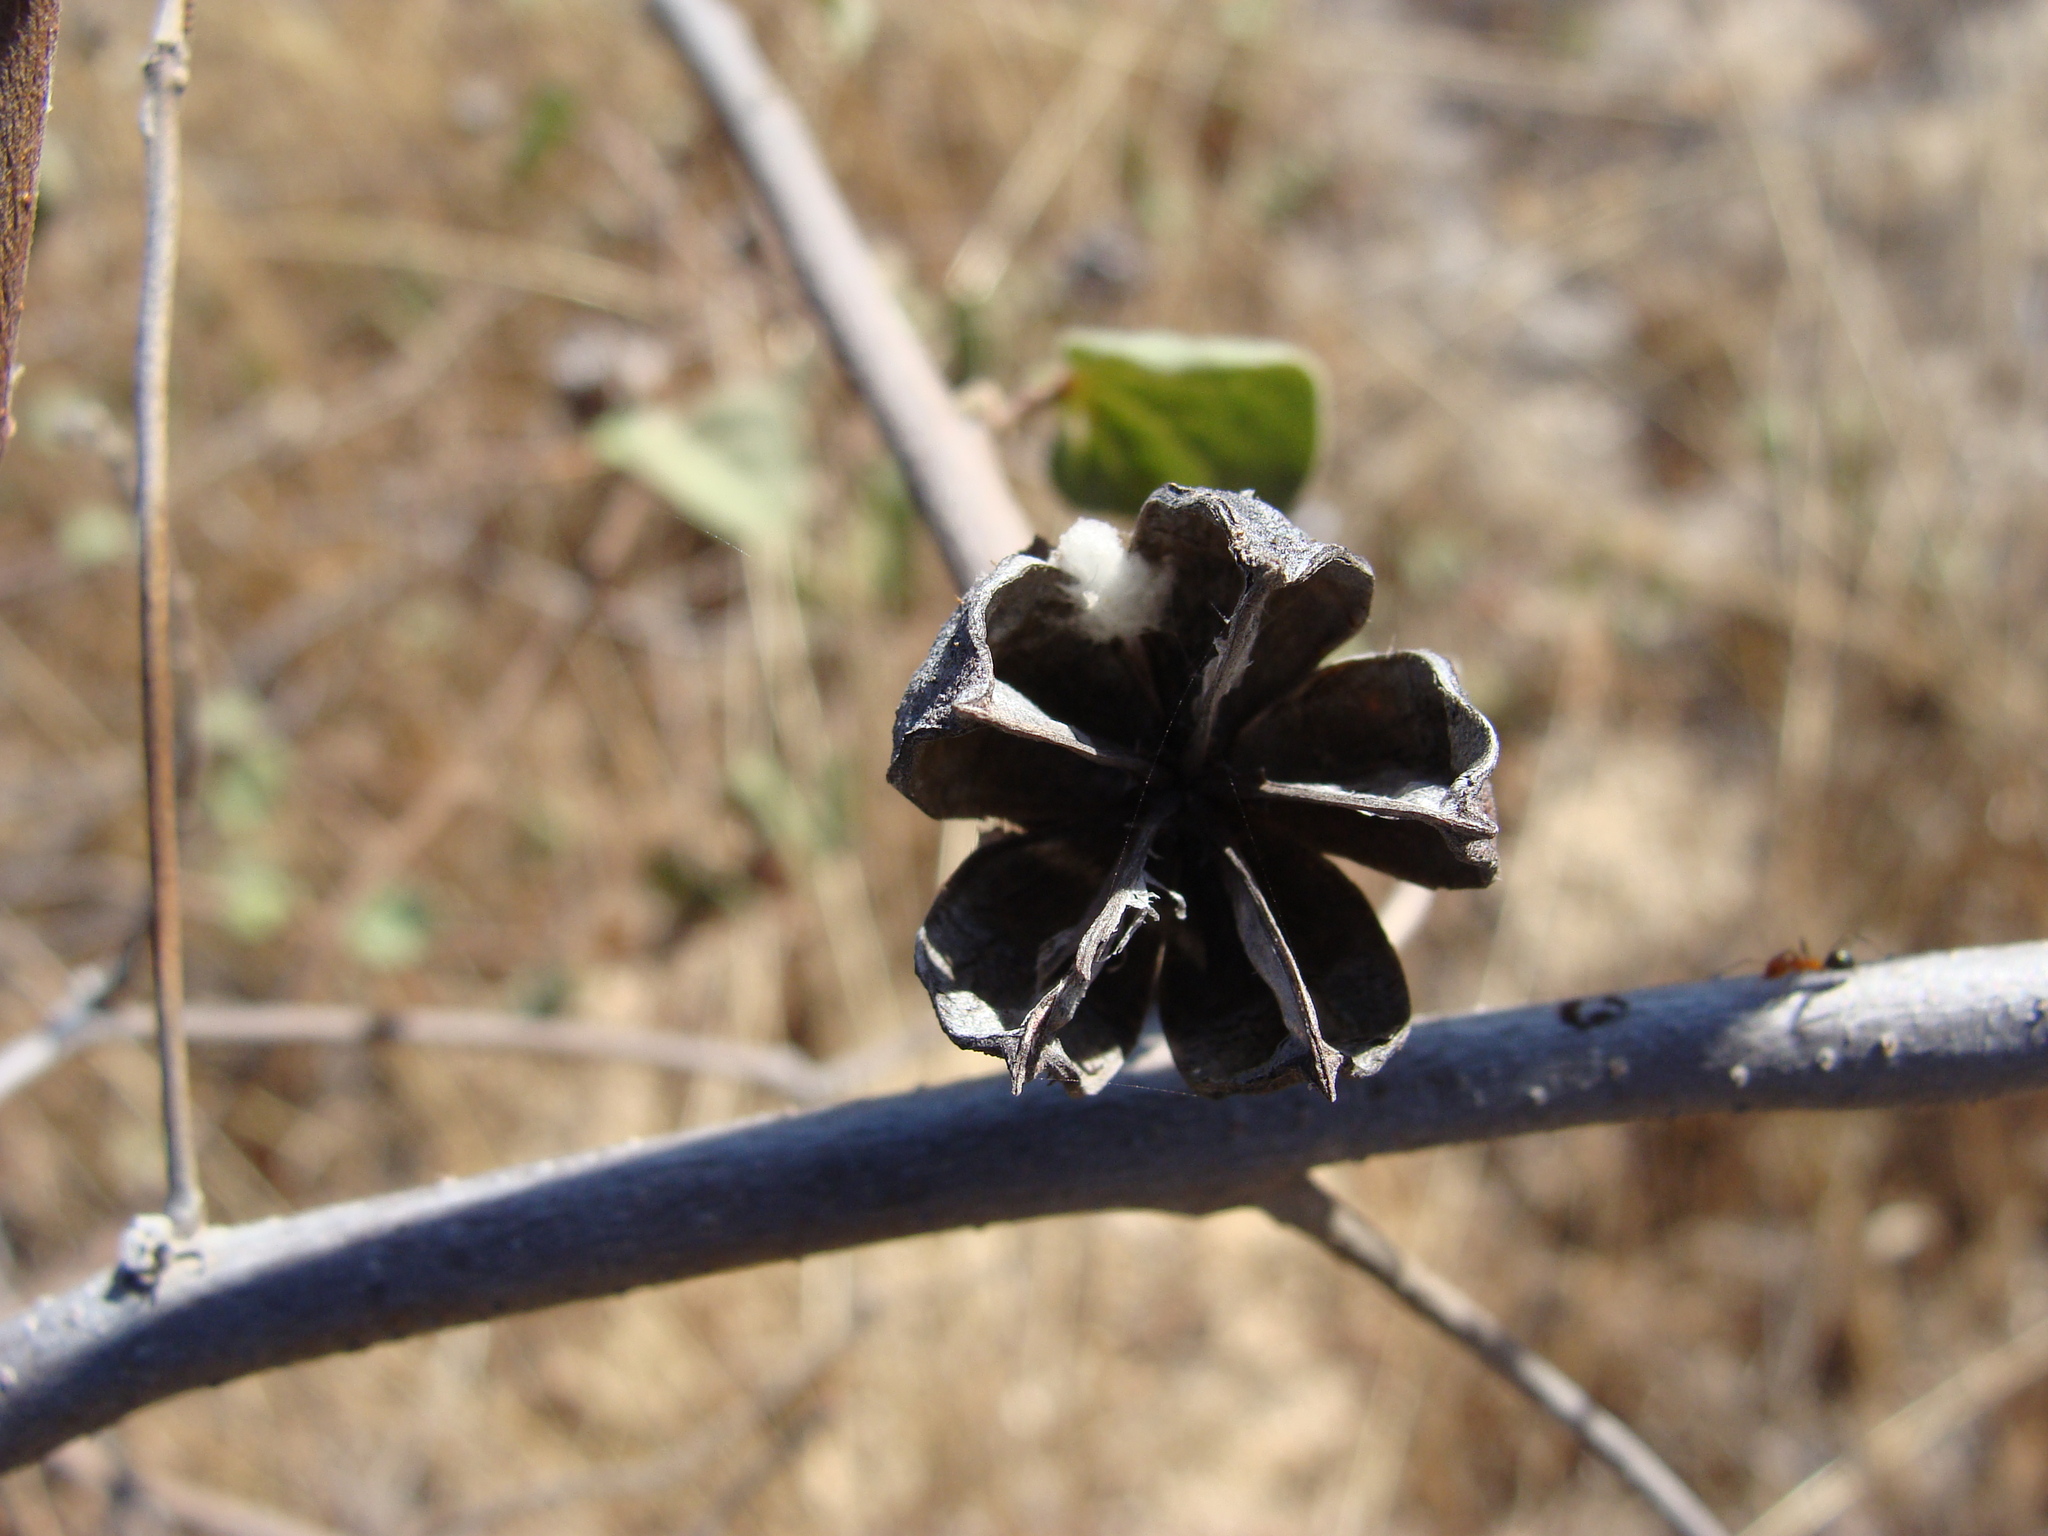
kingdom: Plantae
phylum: Tracheophyta
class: Magnoliopsida
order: Malvales
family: Malvaceae
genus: Gossypium
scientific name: Gossypium klotzschianum
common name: Galapagos cotton
